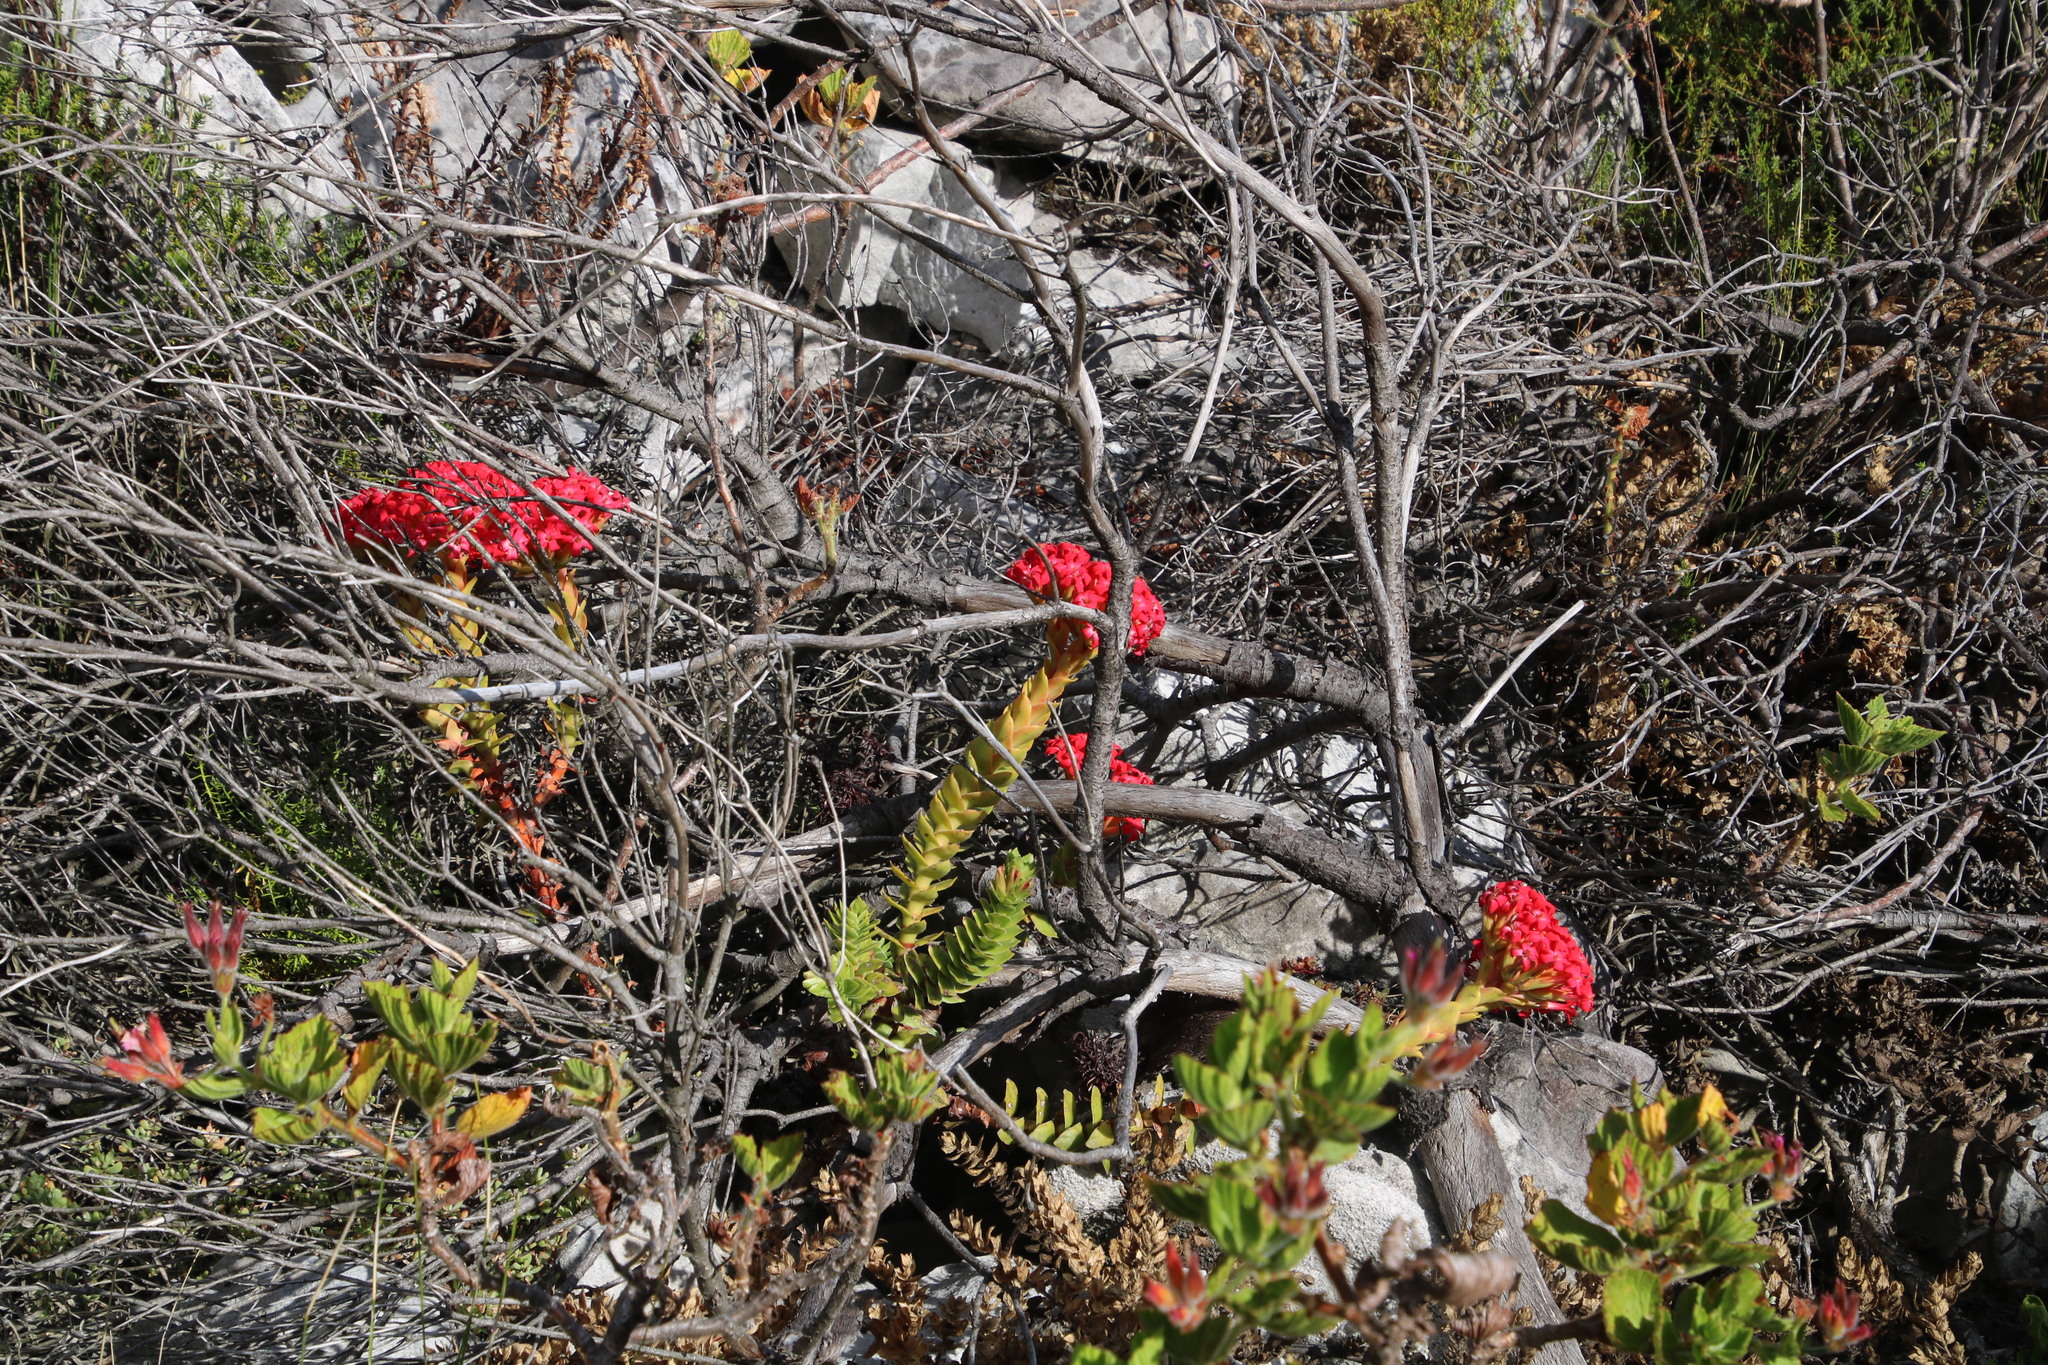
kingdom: Plantae
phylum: Tracheophyta
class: Magnoliopsida
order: Saxifragales
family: Crassulaceae
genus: Crassula
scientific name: Crassula coccinea
